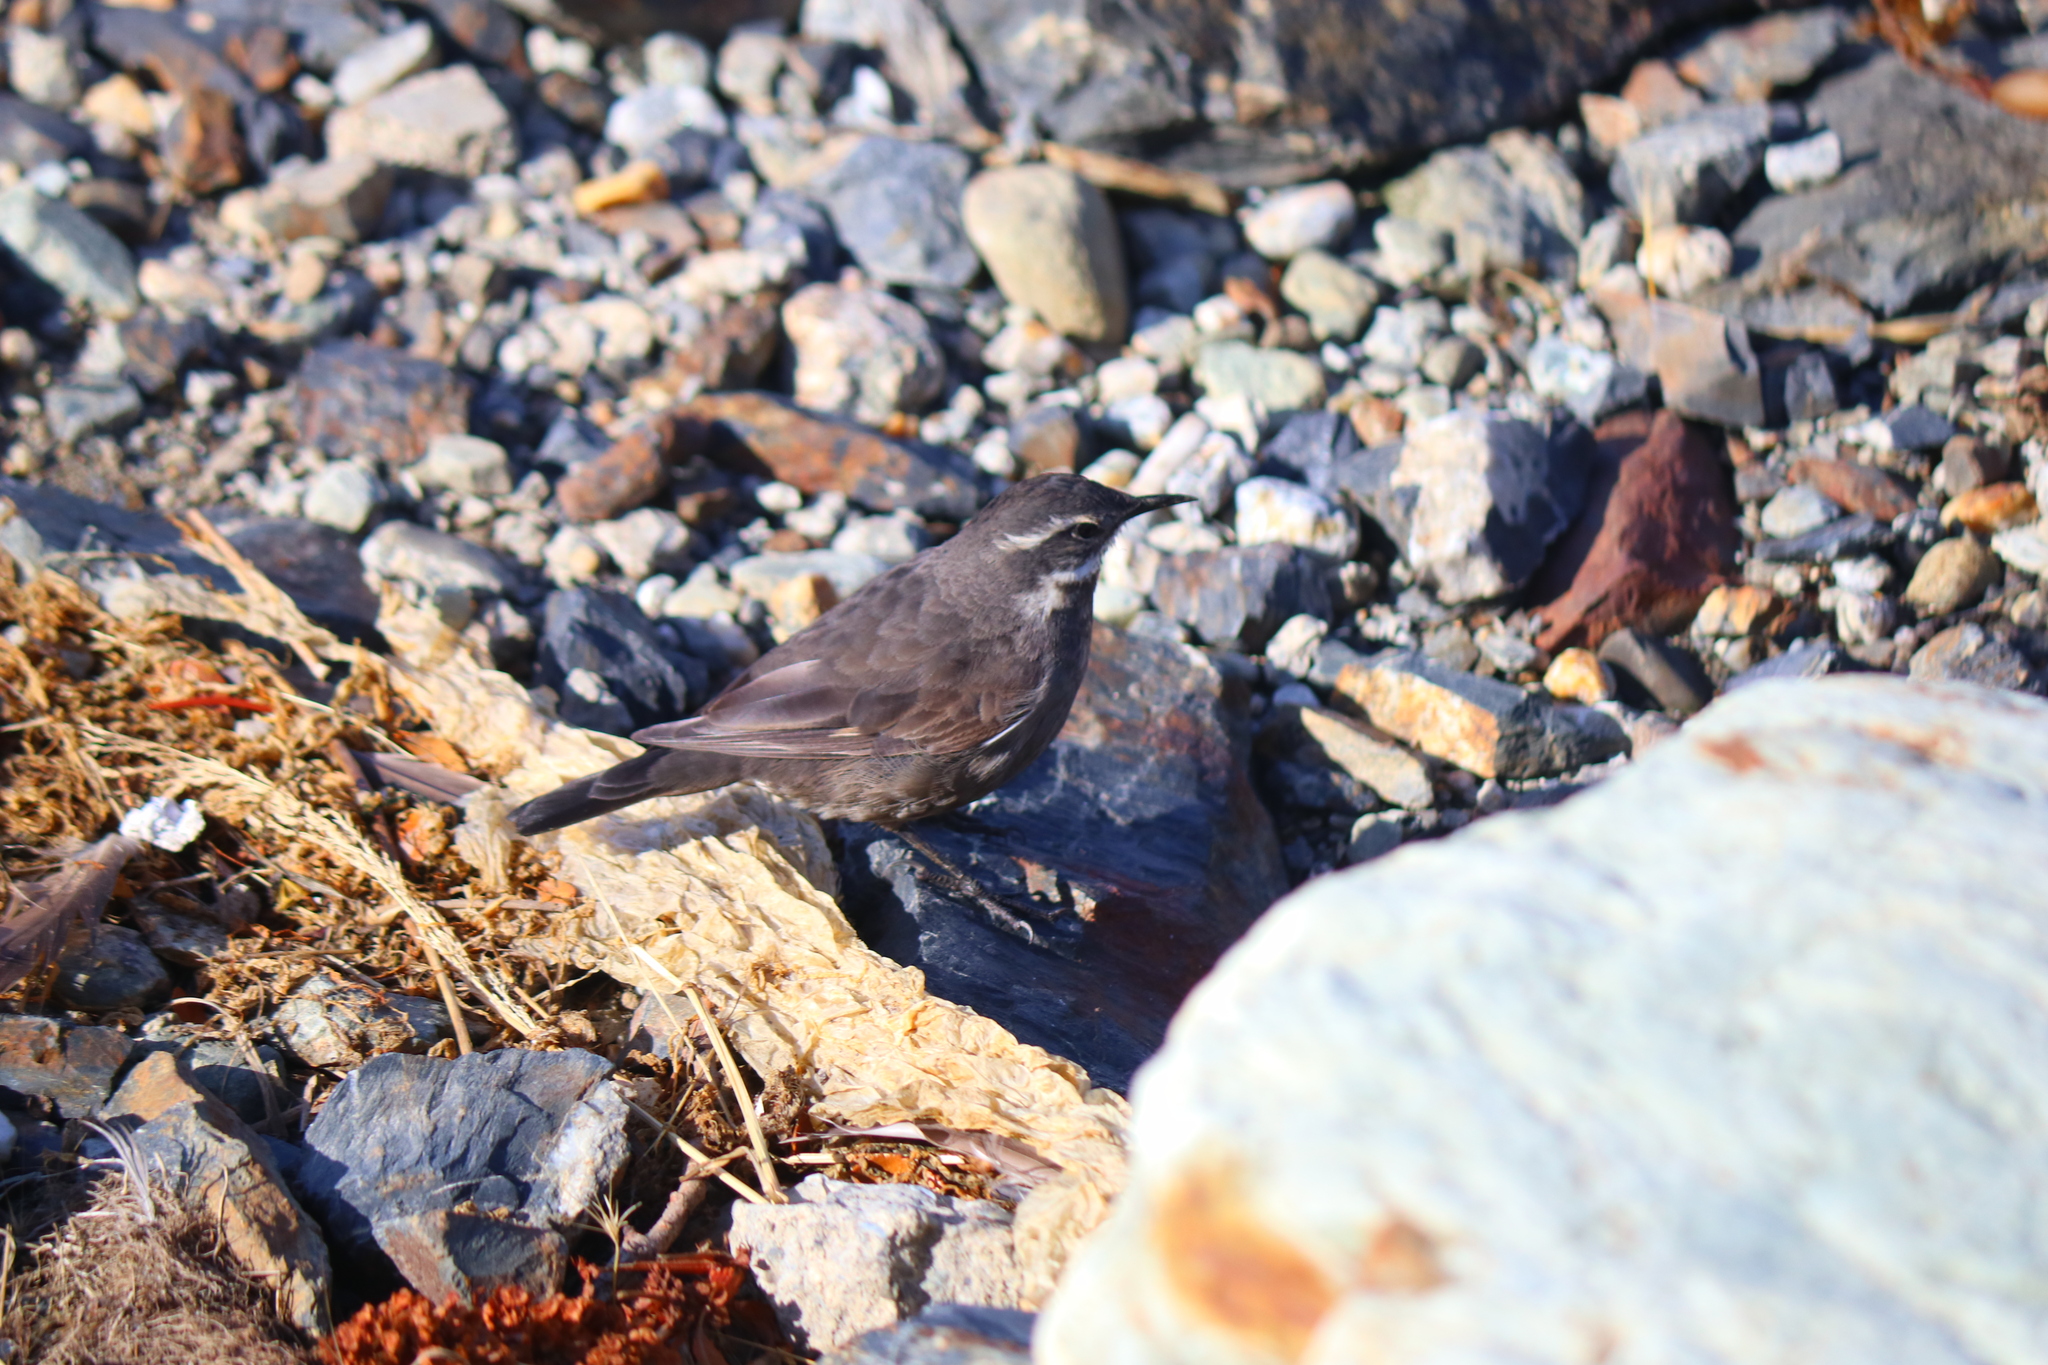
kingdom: Animalia
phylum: Chordata
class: Aves
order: Passeriformes
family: Furnariidae
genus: Cinclodes
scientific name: Cinclodes oustaleti
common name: Grey-flanked cinclodes
